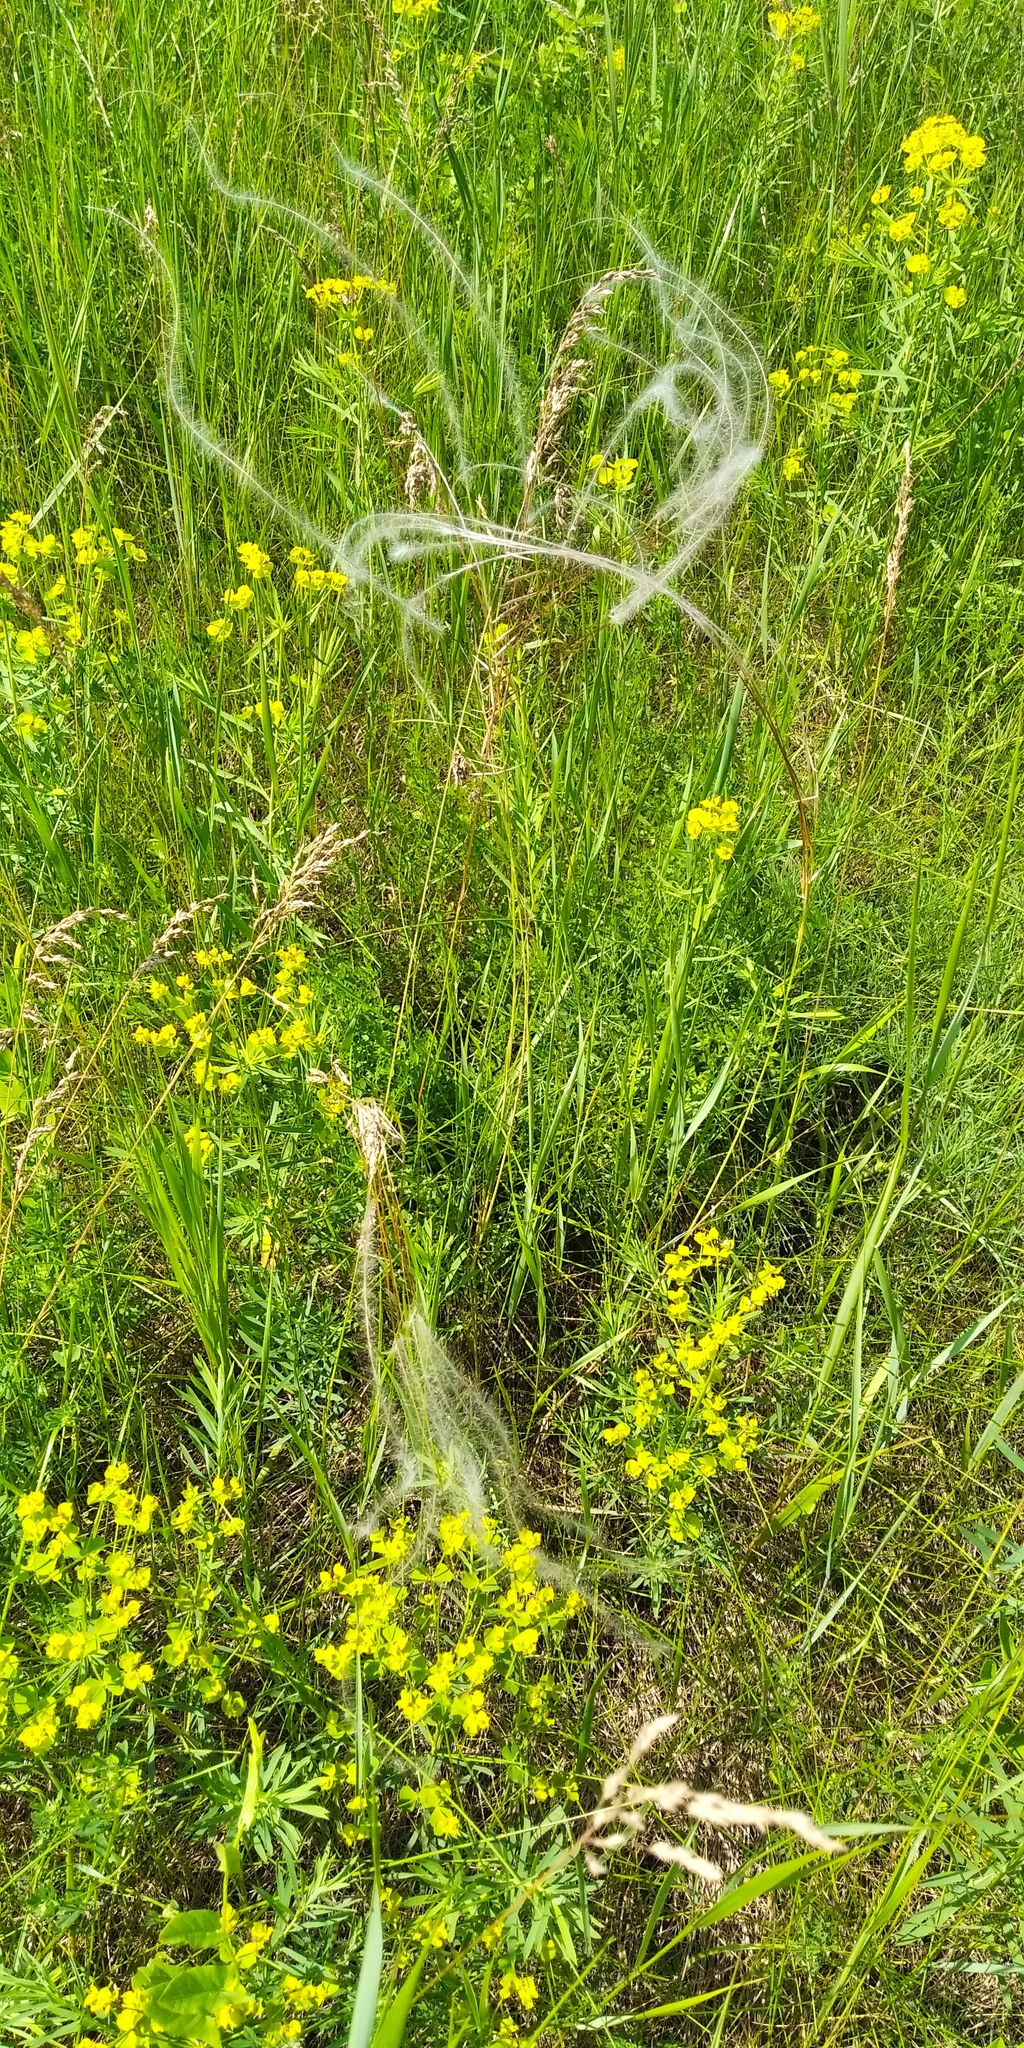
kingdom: Plantae
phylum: Tracheophyta
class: Liliopsida
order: Poales
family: Poaceae
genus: Stipa
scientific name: Stipa pennata
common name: European feather grass
